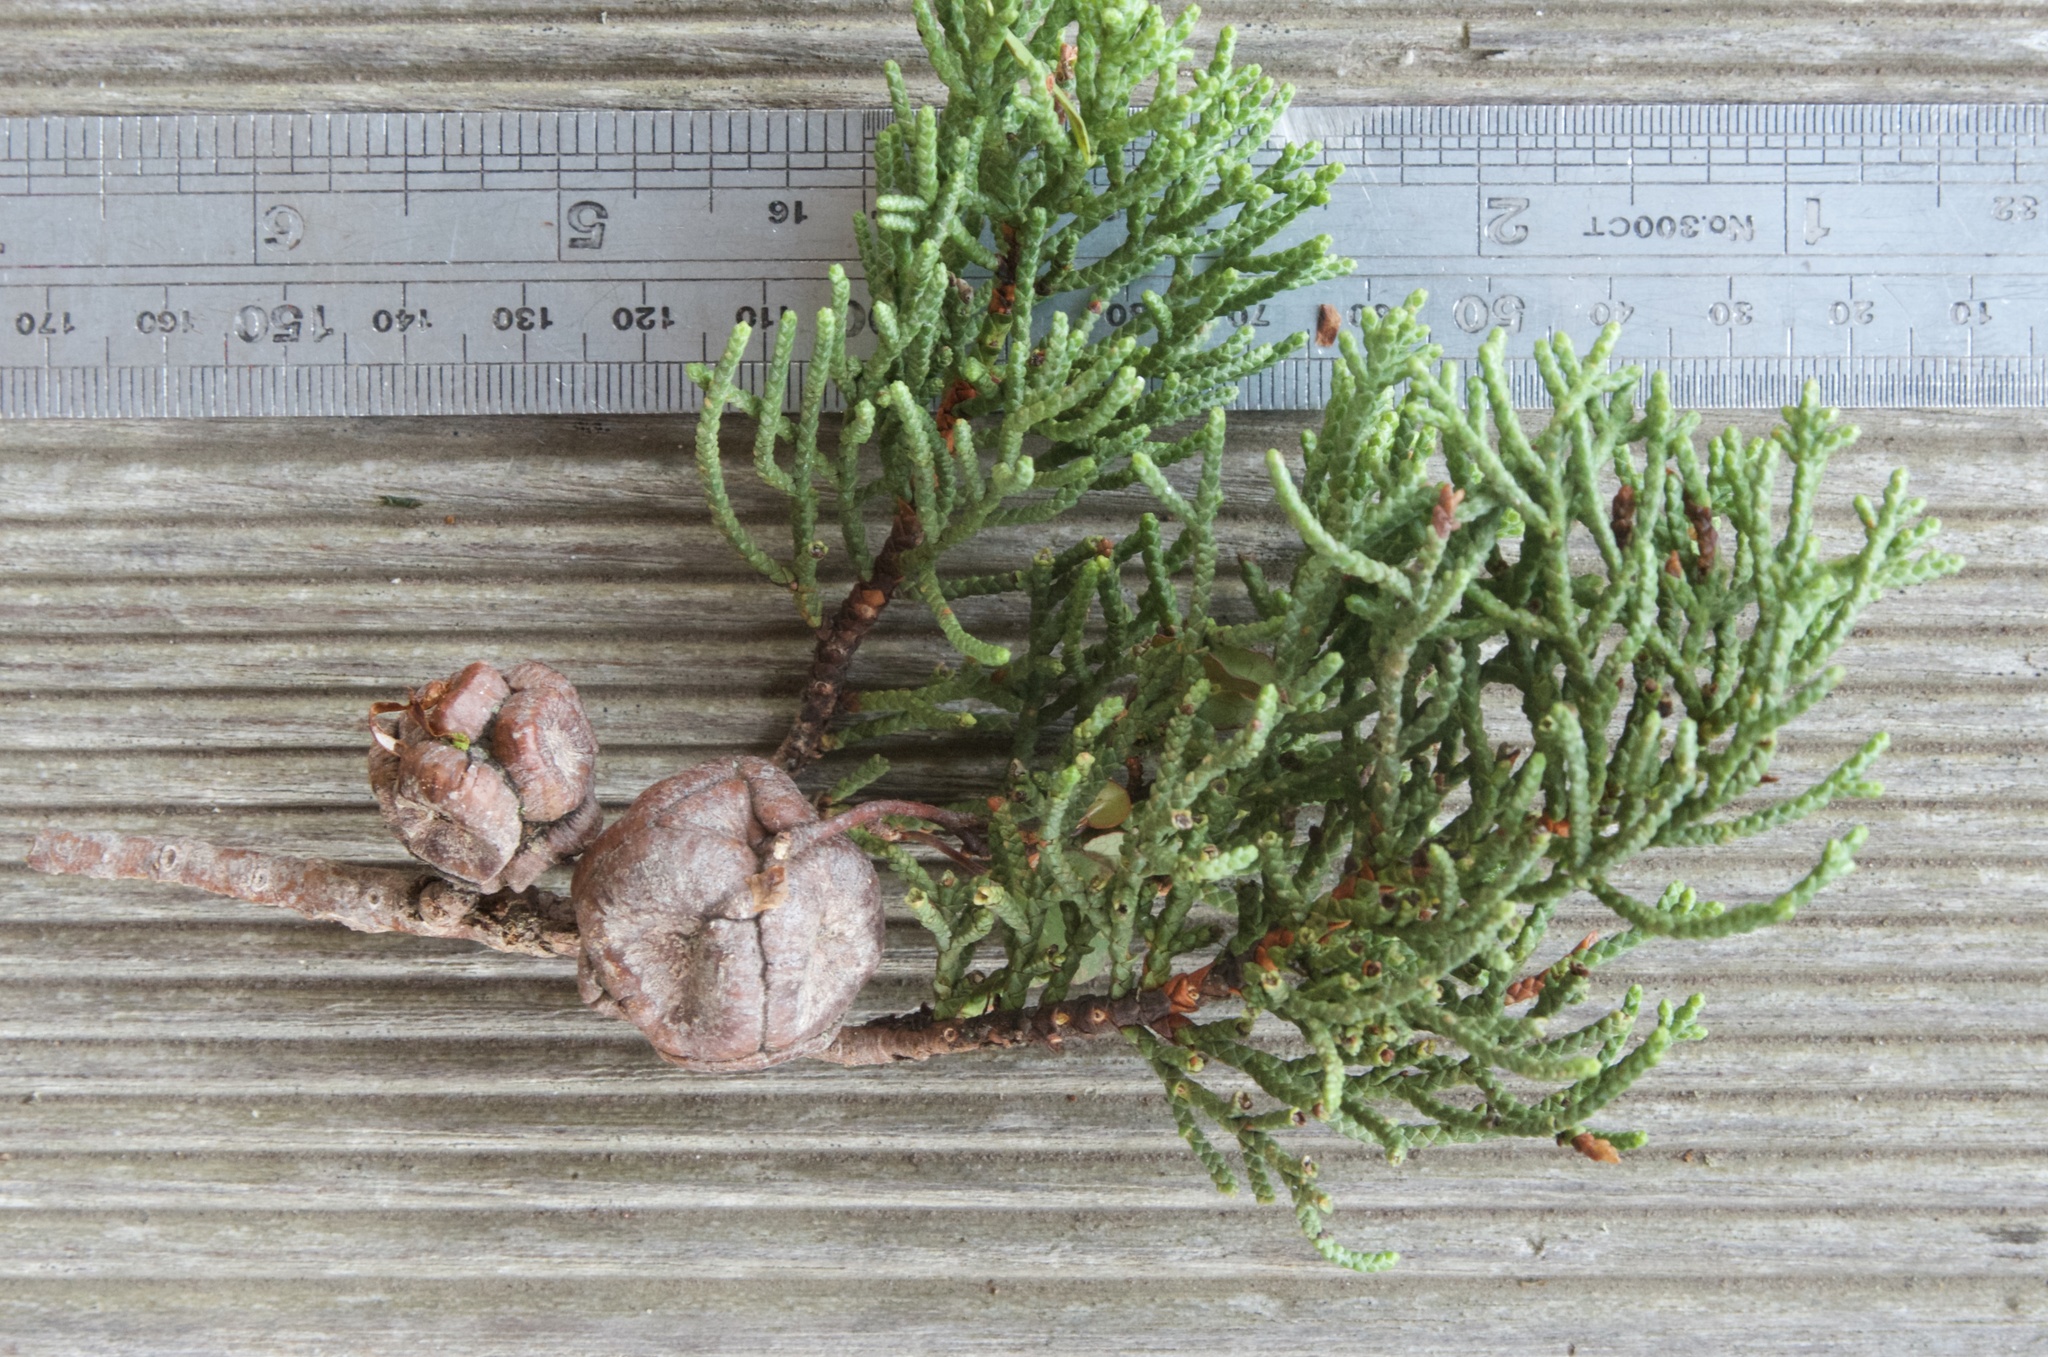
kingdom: Plantae
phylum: Tracheophyta
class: Pinopsida
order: Pinales
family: Cupressaceae
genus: Cupressus
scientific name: Cupressus macrocarpa
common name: Monterey cypress
